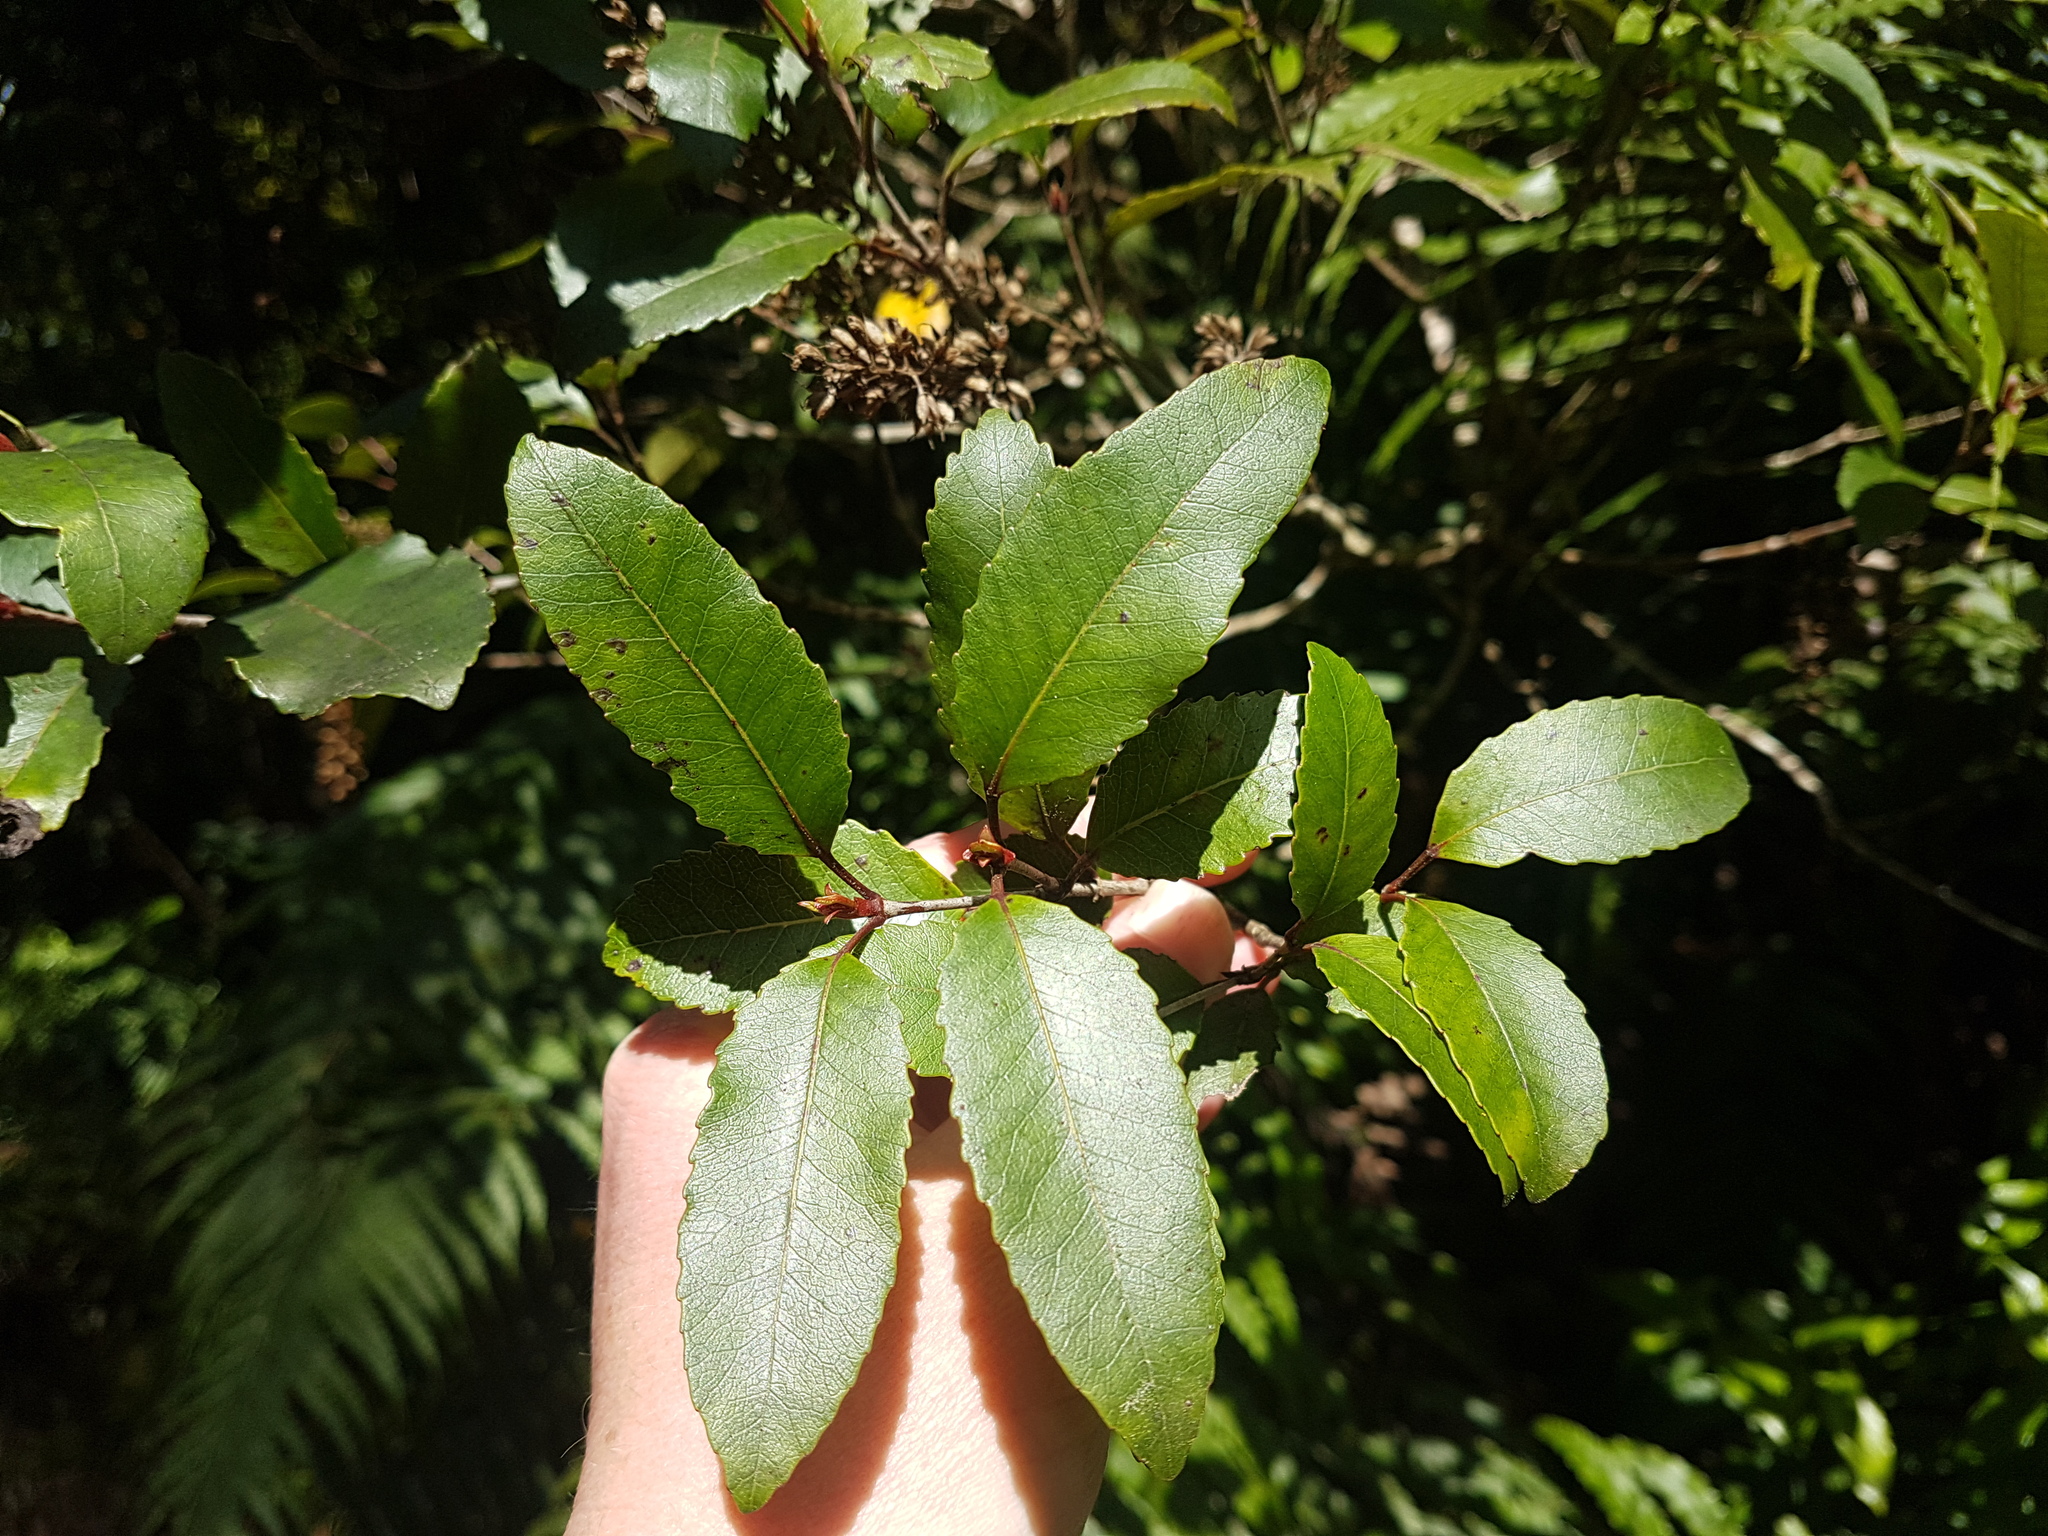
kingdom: Plantae
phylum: Tracheophyta
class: Magnoliopsida
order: Oxalidales
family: Cunoniaceae
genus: Pterophylla
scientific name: Pterophylla racemosa
